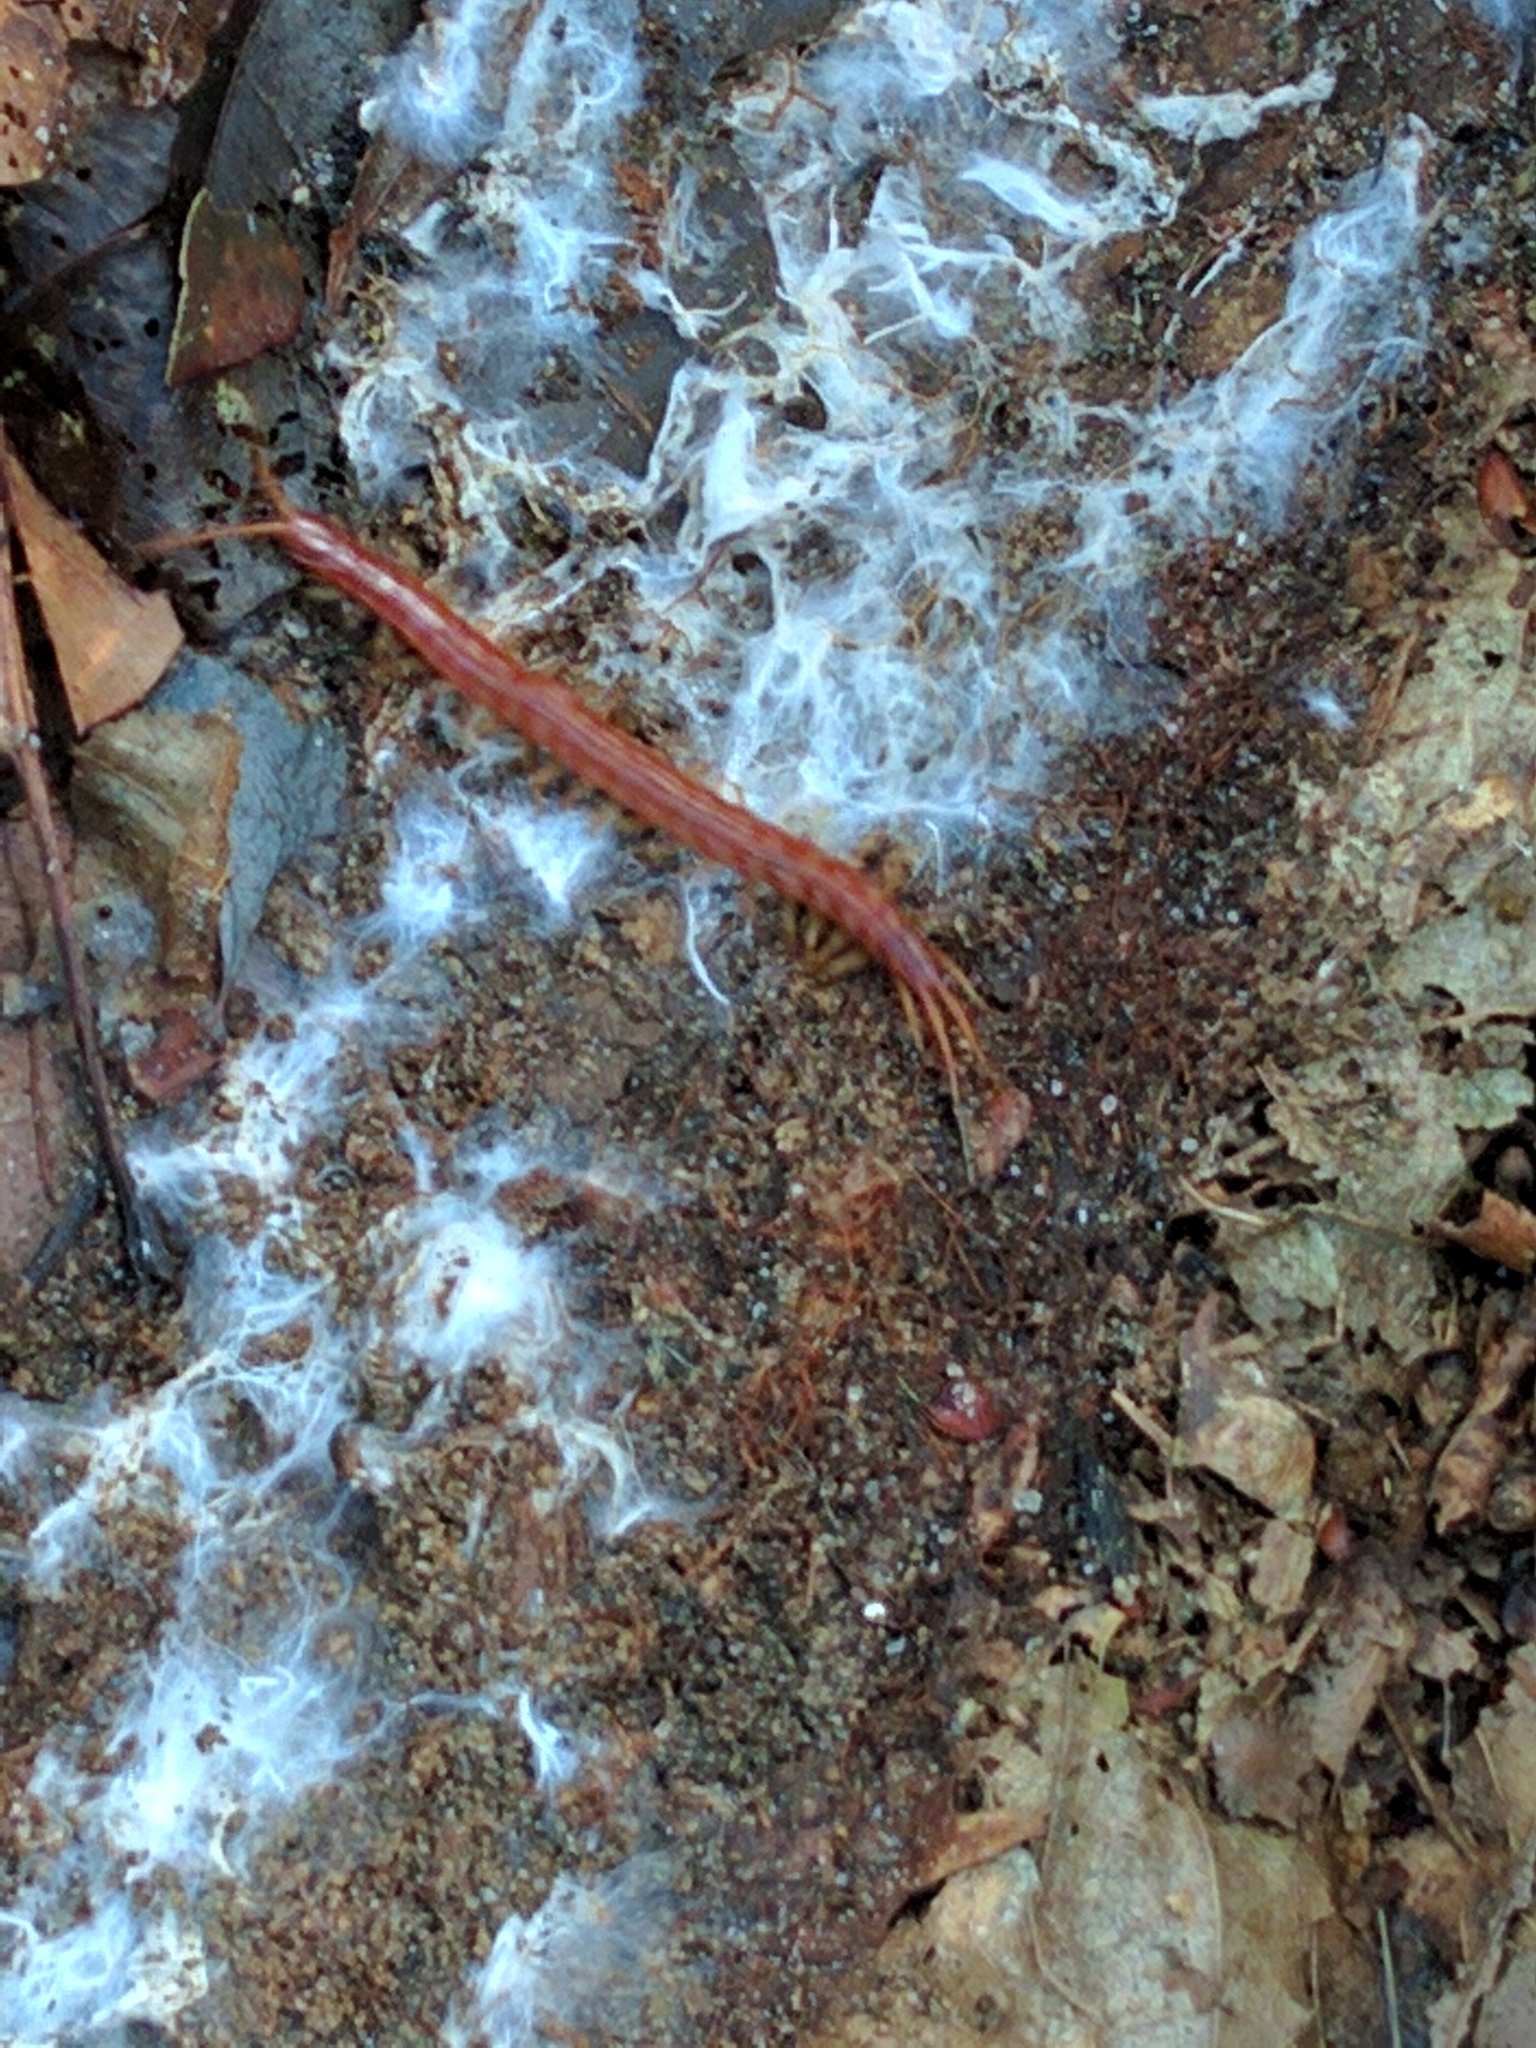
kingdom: Animalia
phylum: Arthropoda
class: Chilopoda
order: Scolopendromorpha
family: Scolopocryptopidae
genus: Scolopocryptops
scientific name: Scolopocryptops sexspinosus
